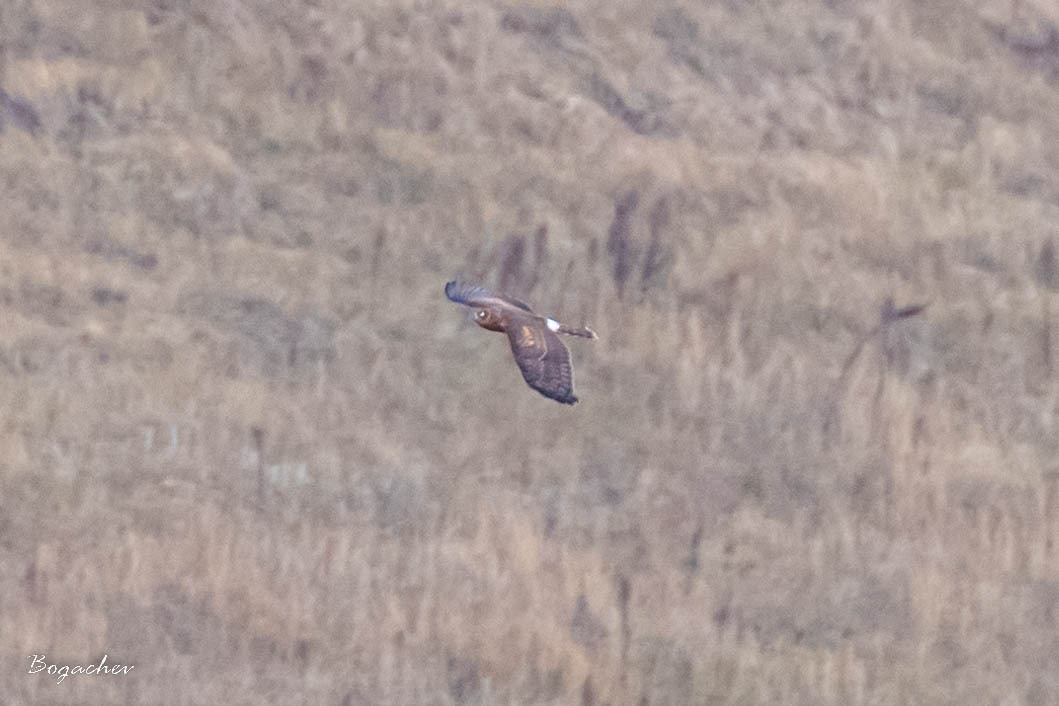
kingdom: Animalia
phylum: Chordata
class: Aves
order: Accipitriformes
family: Accipitridae
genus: Circus
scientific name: Circus cyaneus
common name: Hen harrier
